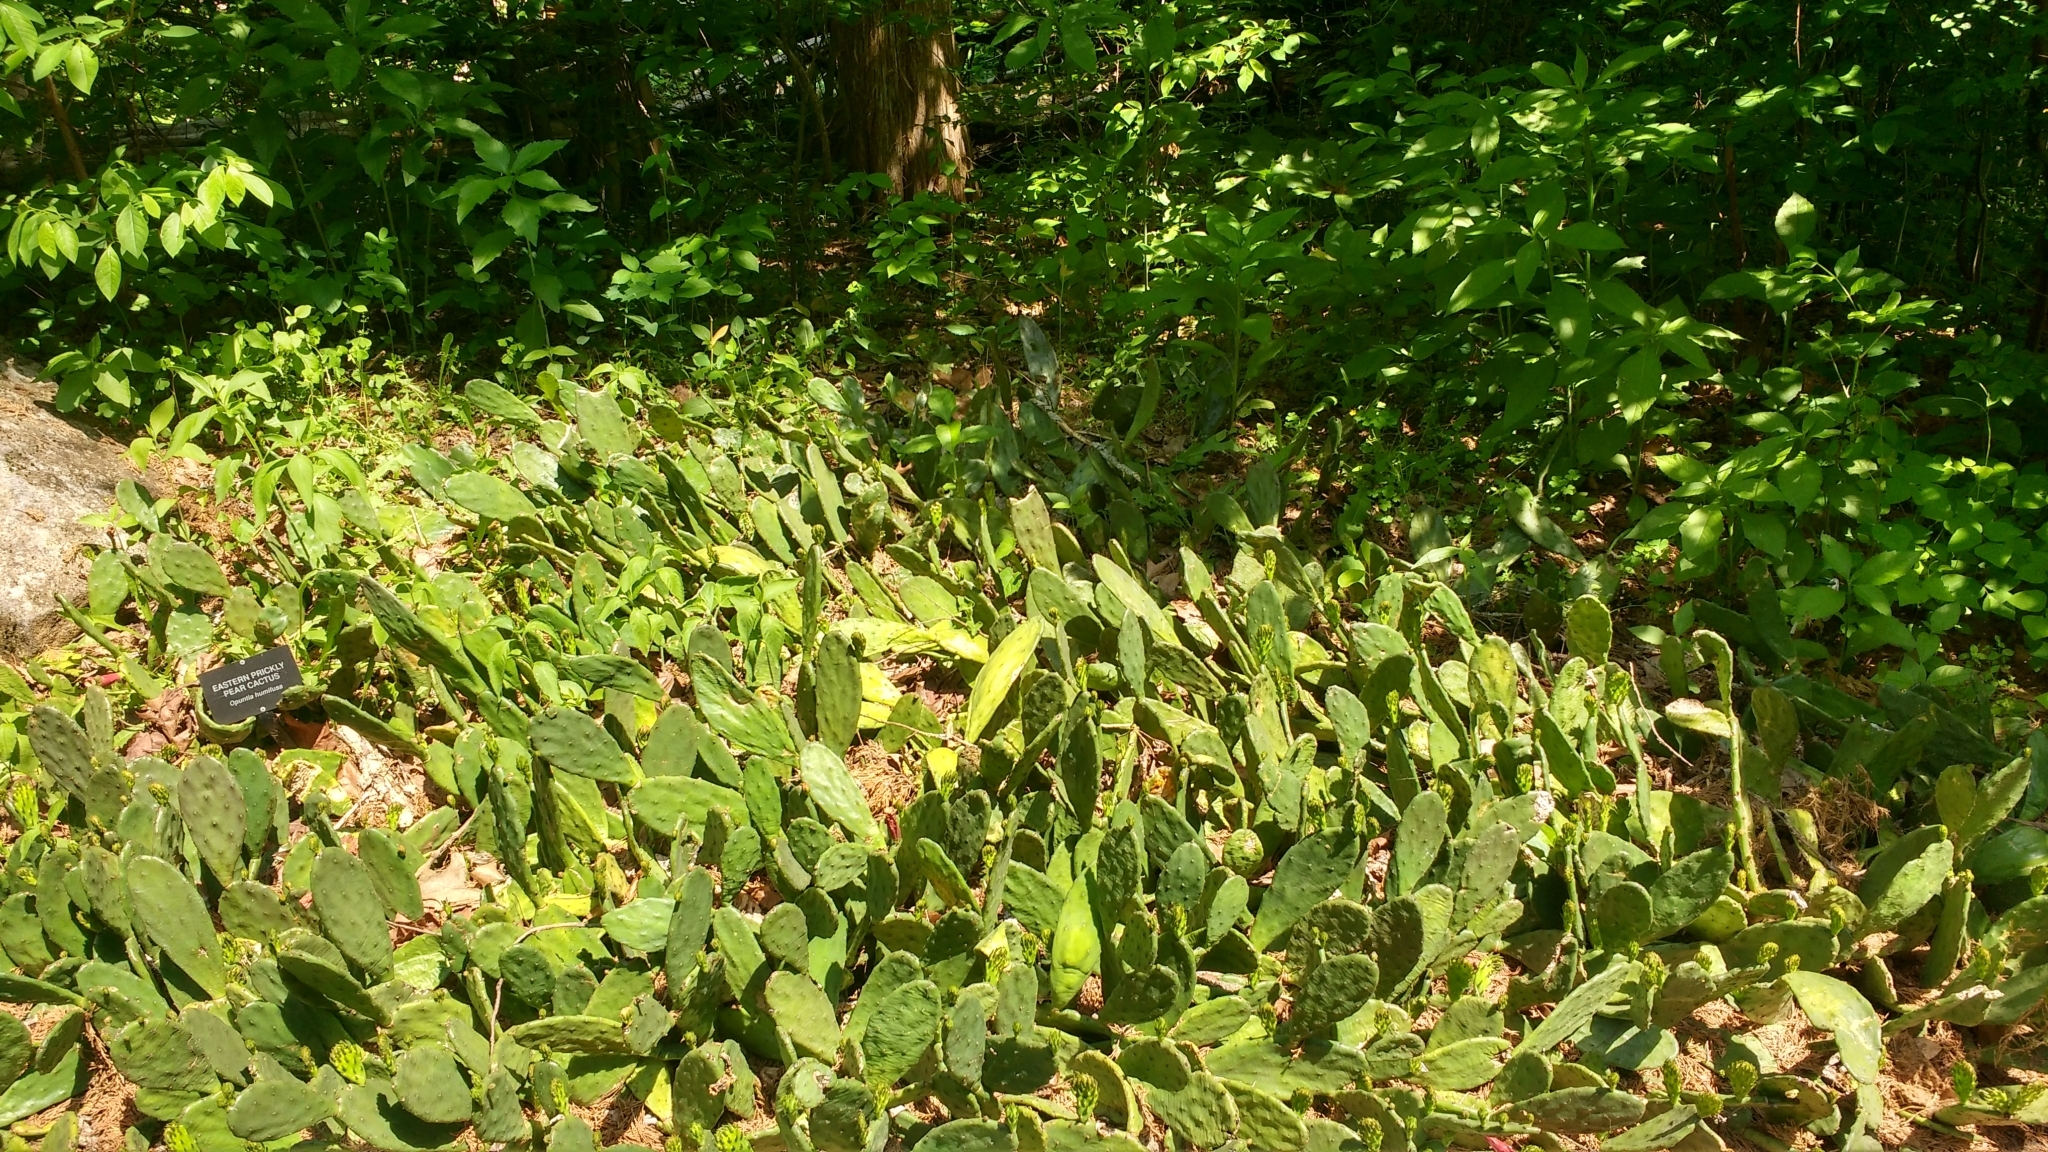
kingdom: Plantae
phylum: Tracheophyta
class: Magnoliopsida
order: Caryophyllales
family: Cactaceae
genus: Opuntia
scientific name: Opuntia humifusa
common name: Eastern prickly-pear
